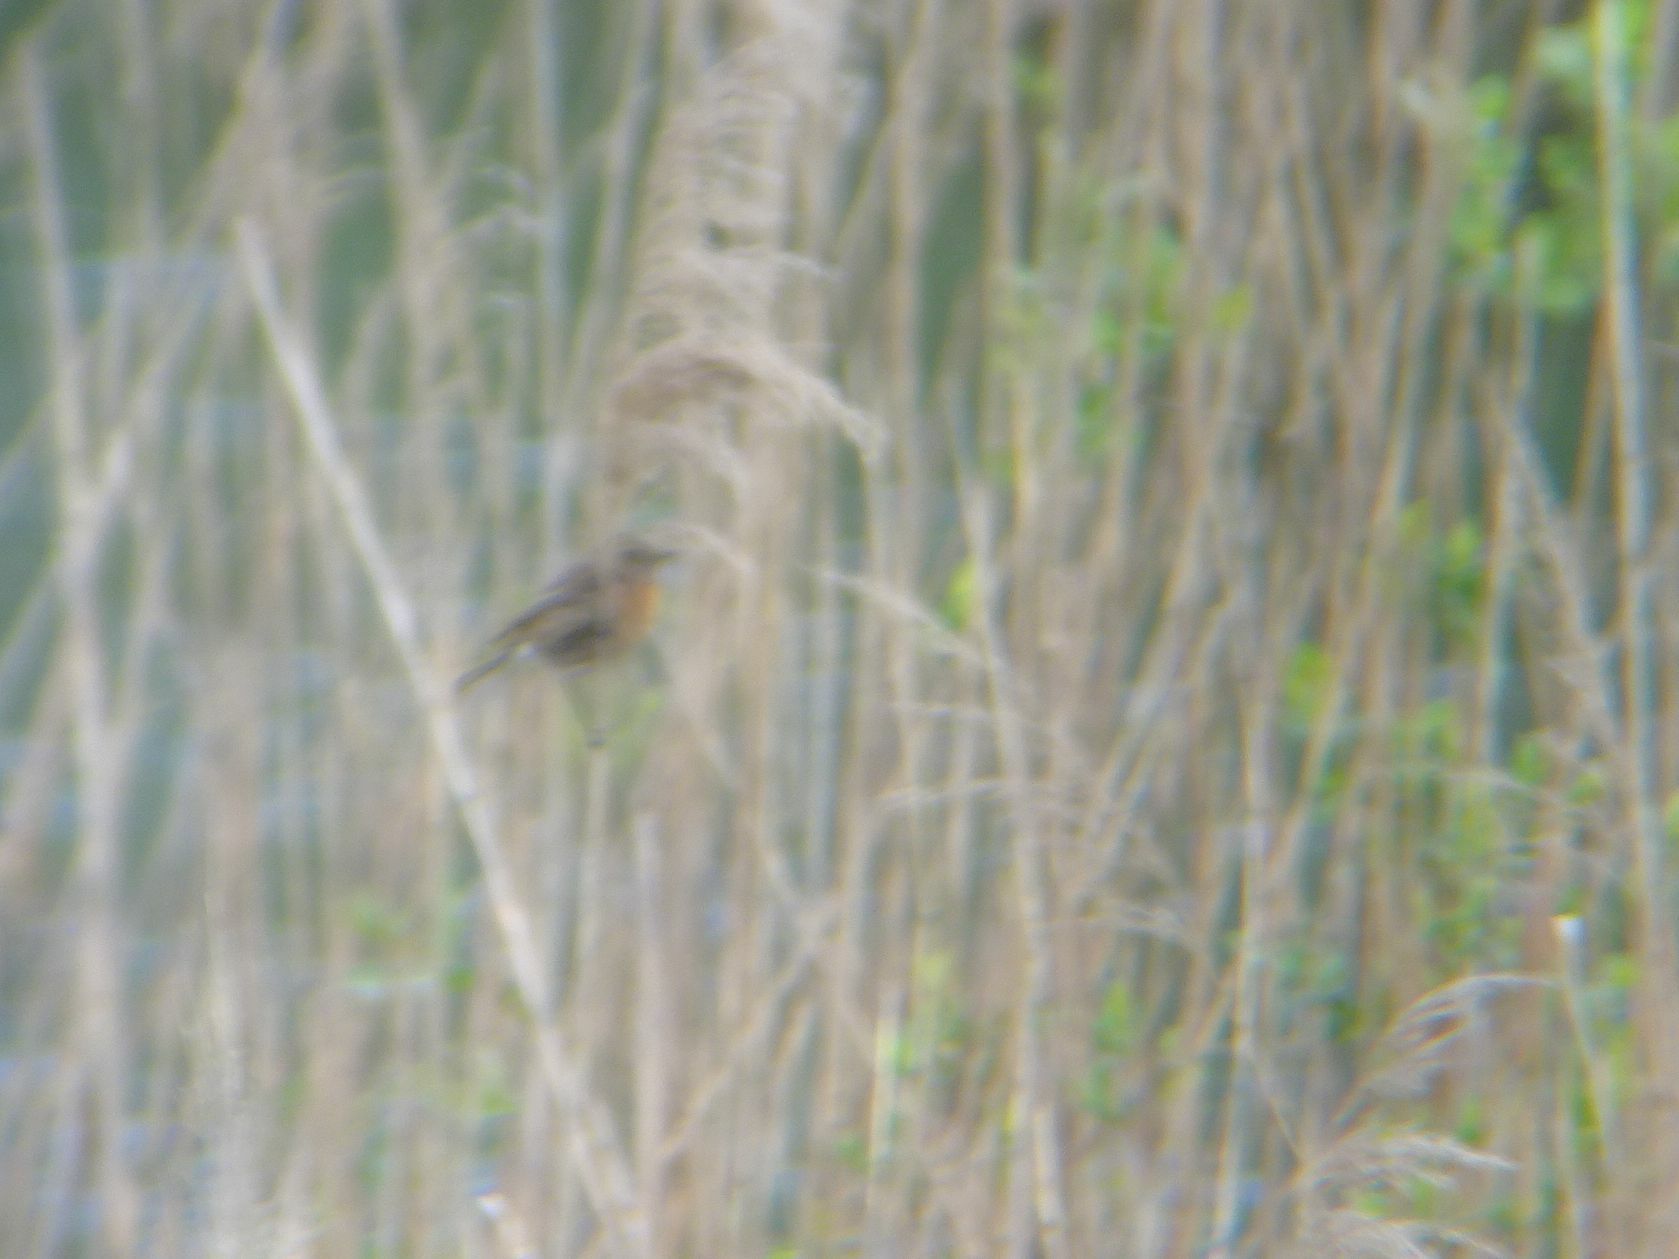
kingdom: Animalia
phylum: Chordata
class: Aves
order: Passeriformes
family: Muscicapidae
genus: Saxicola
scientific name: Saxicola rubicola
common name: European stonechat
